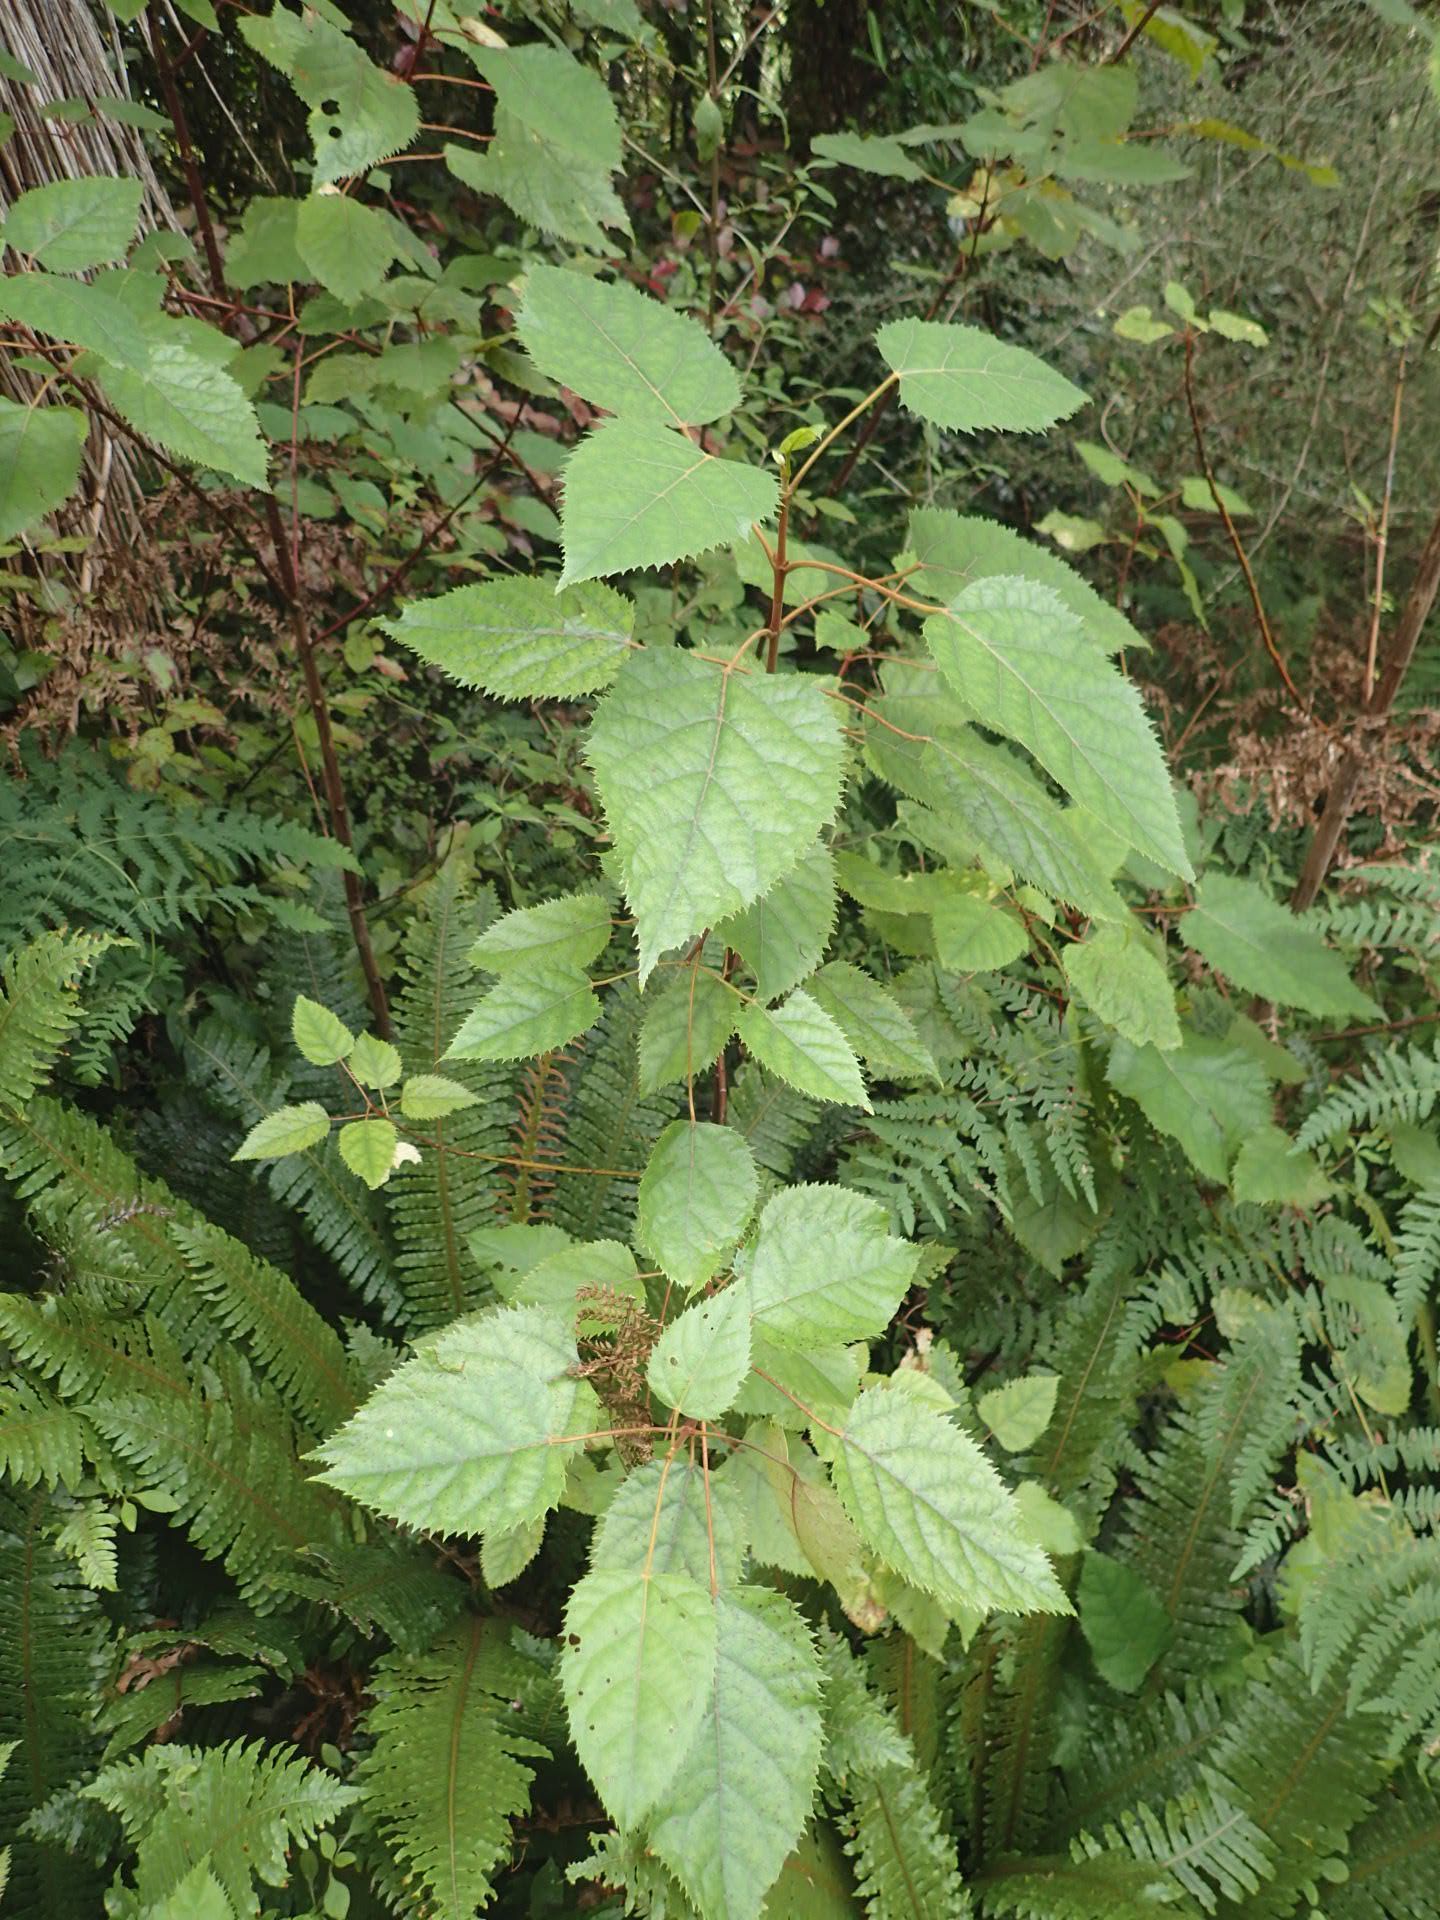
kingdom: Plantae
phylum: Tracheophyta
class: Magnoliopsida
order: Oxalidales
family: Elaeocarpaceae
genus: Aristotelia
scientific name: Aristotelia serrata
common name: New zealand wineberry
